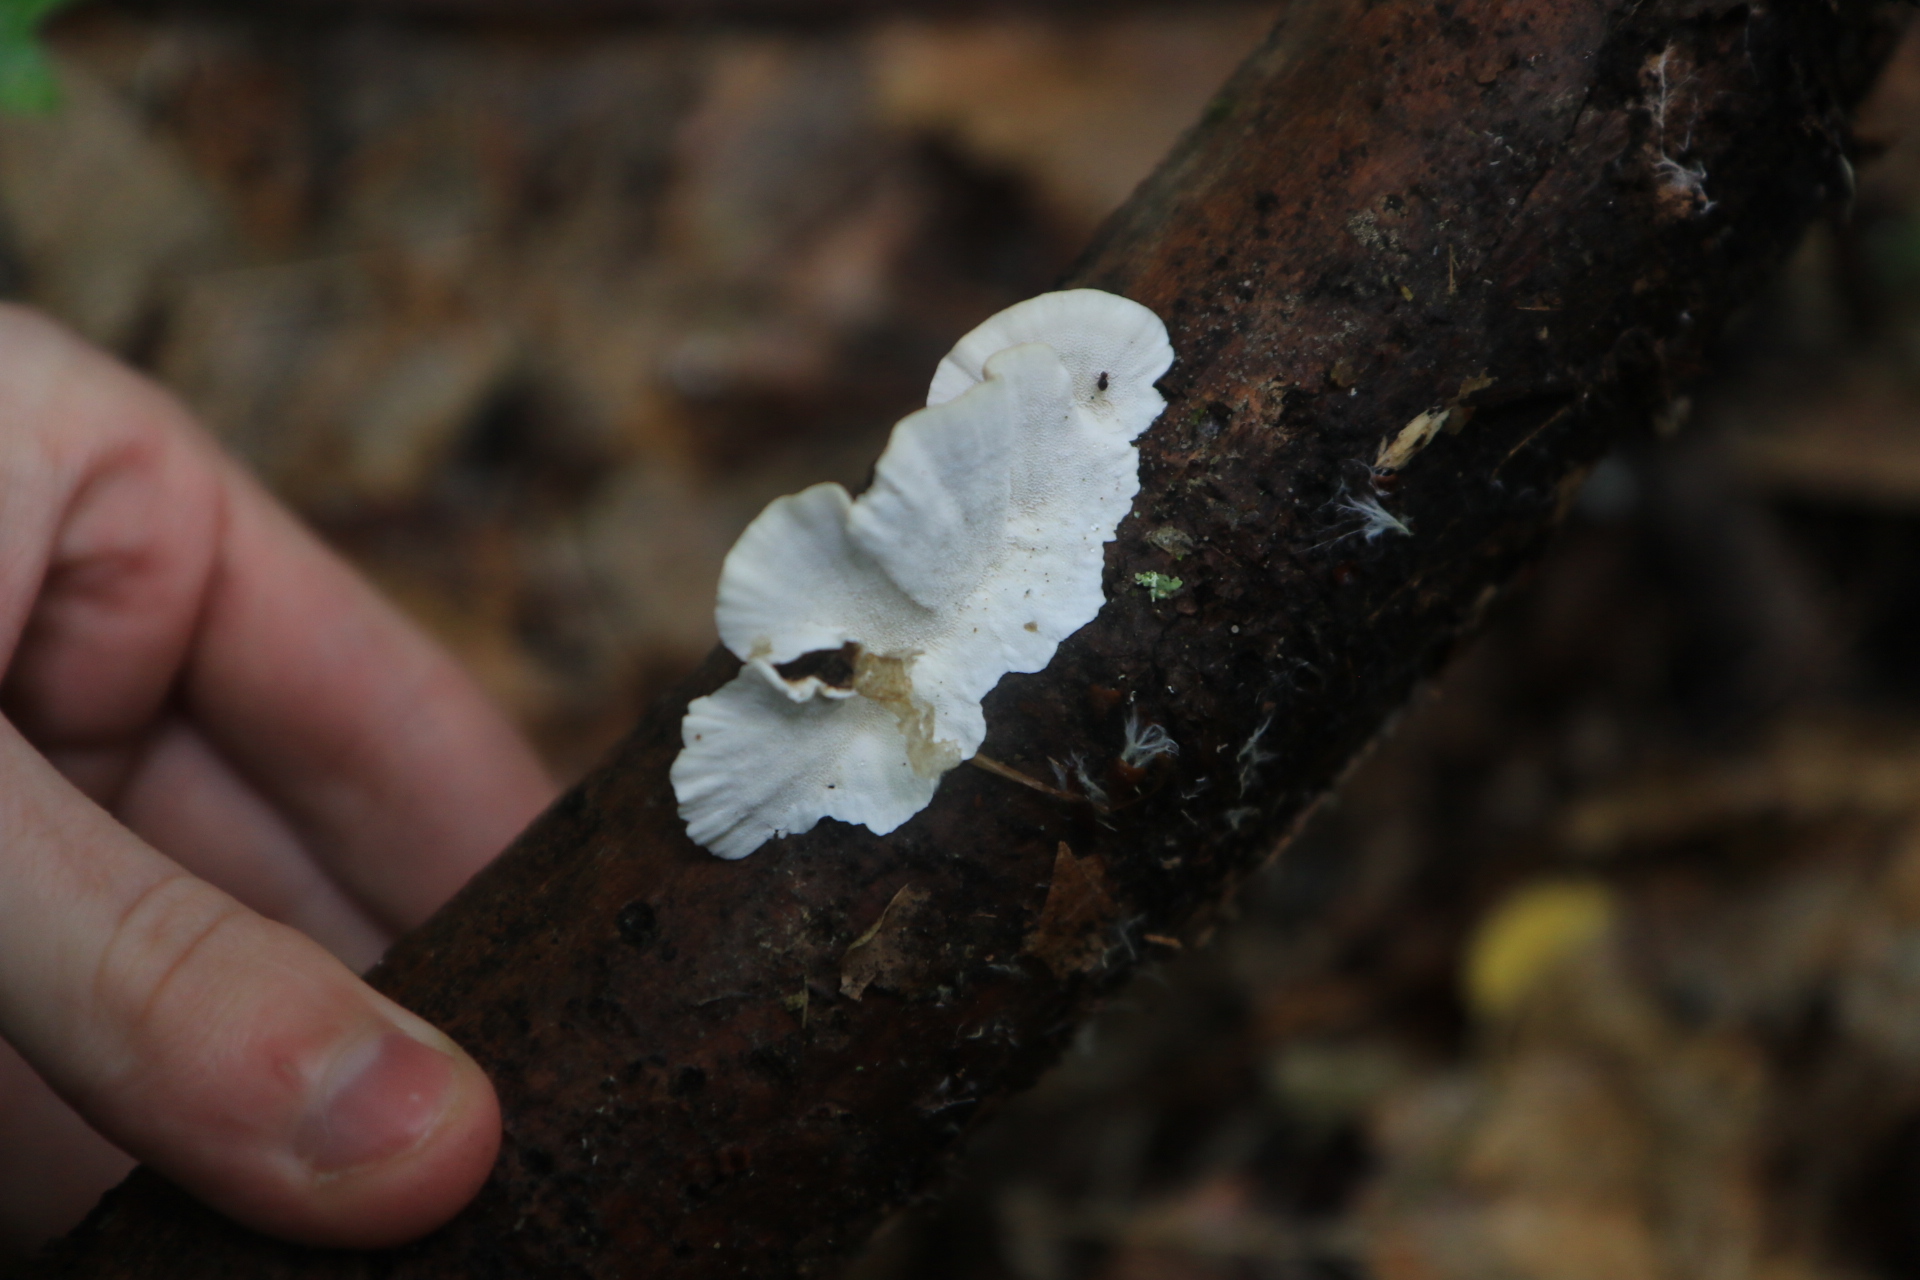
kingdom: Fungi
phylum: Basidiomycota
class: Agaricomycetes
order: Polyporales
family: Polyporaceae
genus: Trametes
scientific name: Trametes
